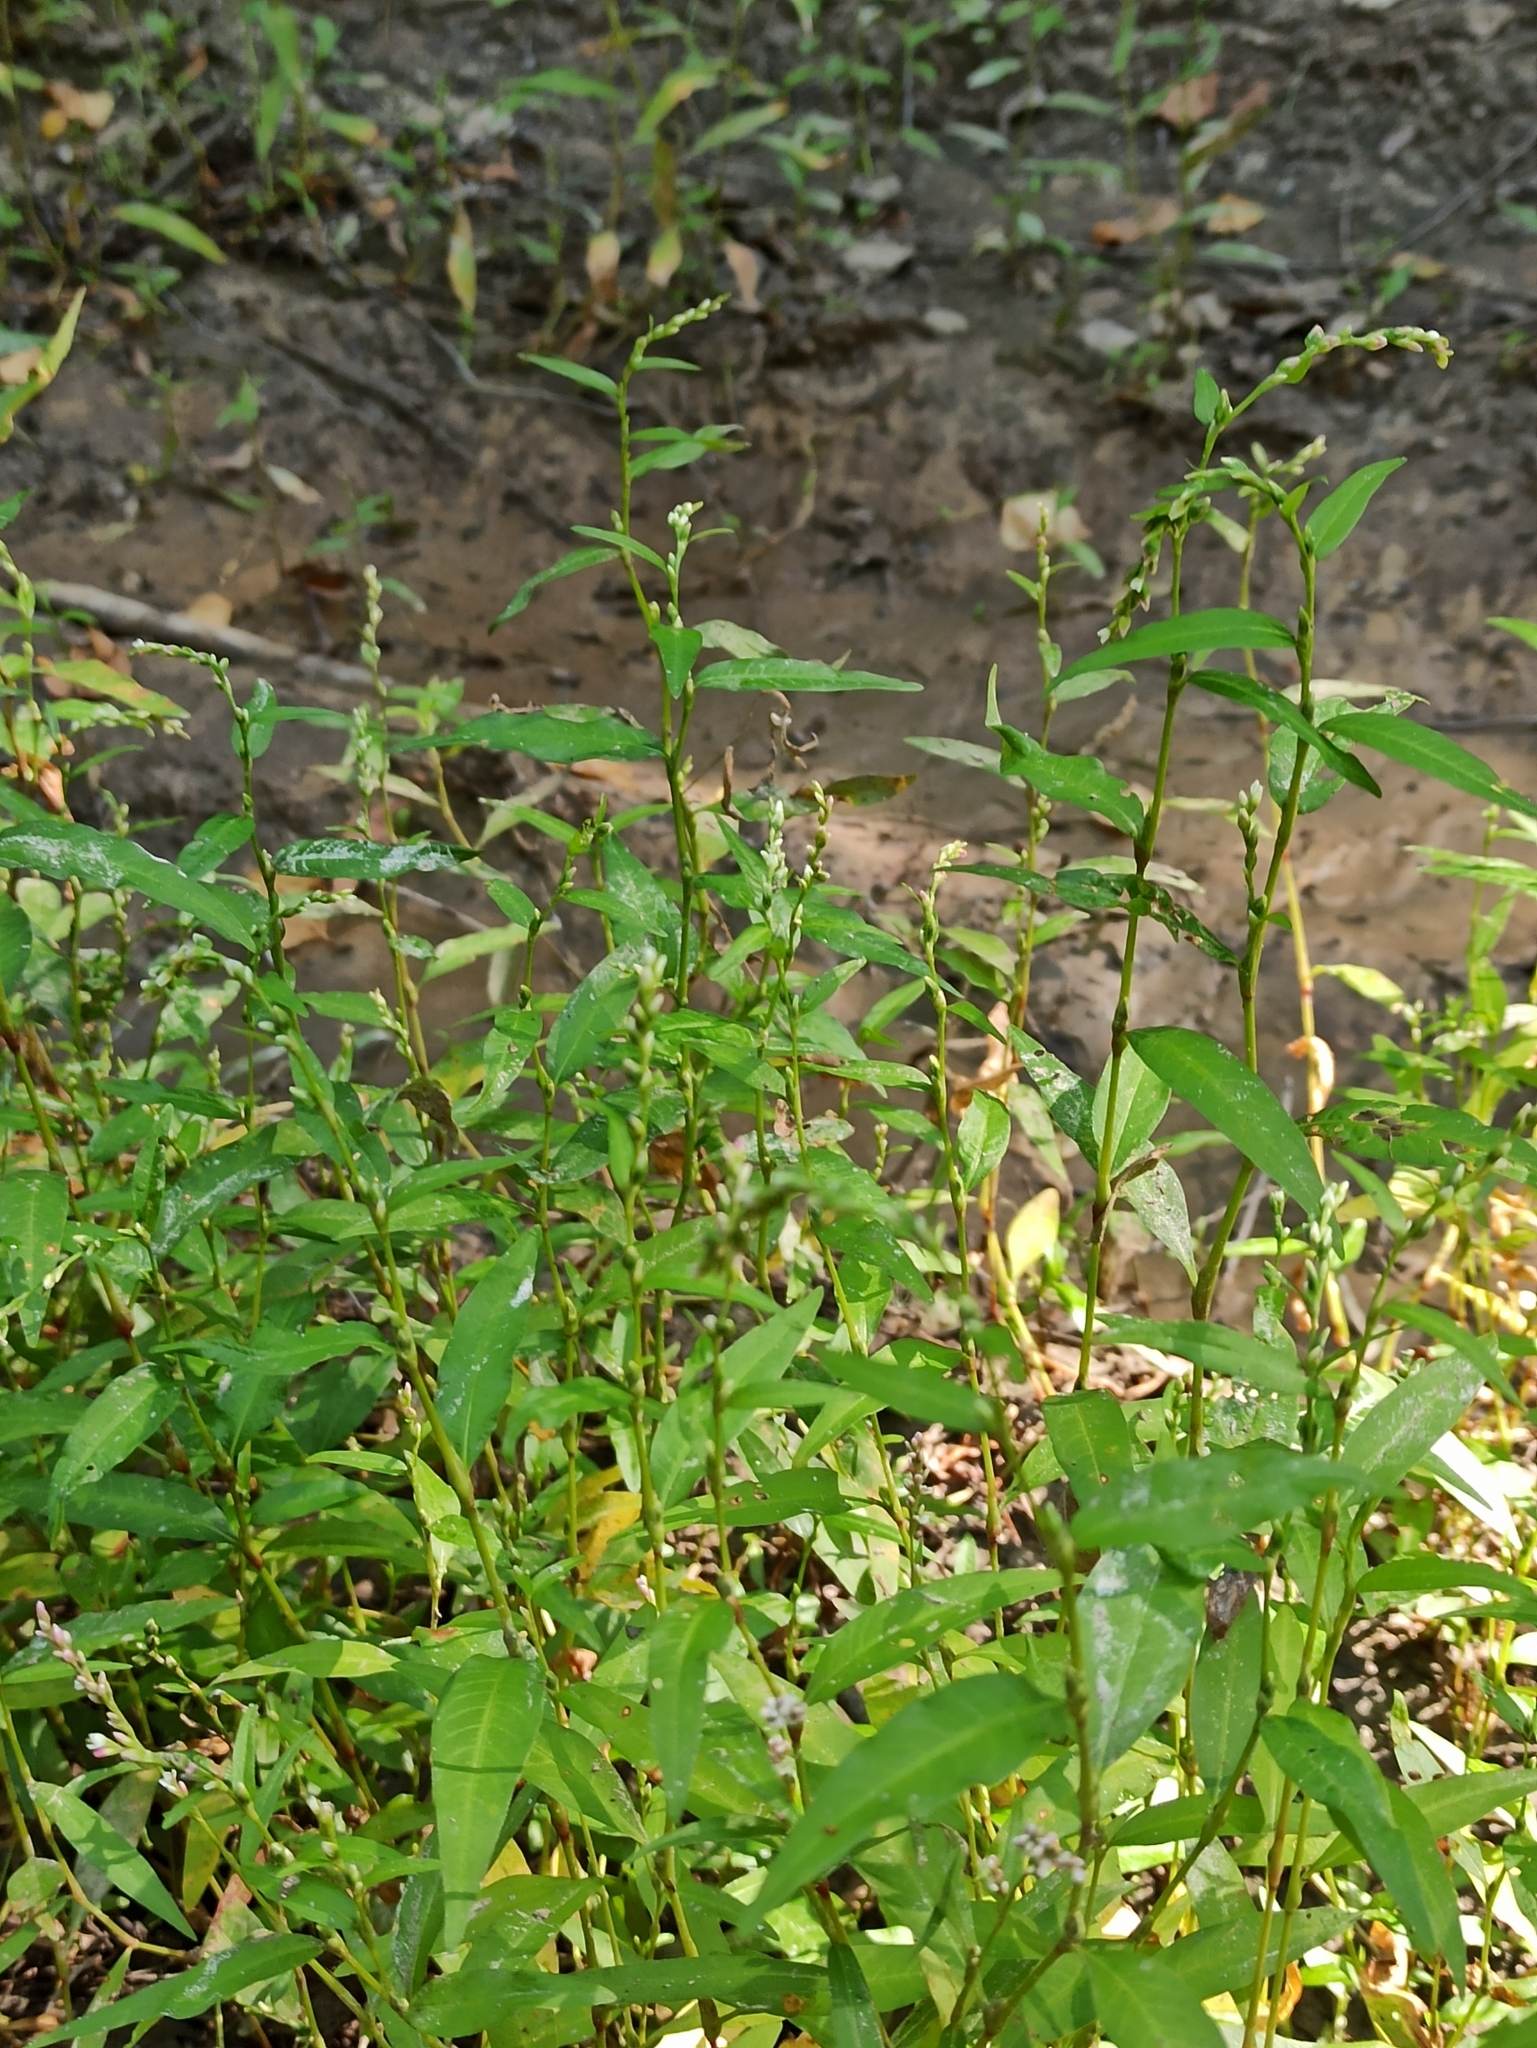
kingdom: Plantae
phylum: Tracheophyta
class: Magnoliopsida
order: Caryophyllales
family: Polygonaceae
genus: Persicaria
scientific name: Persicaria hydropiper
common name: Water-pepper
